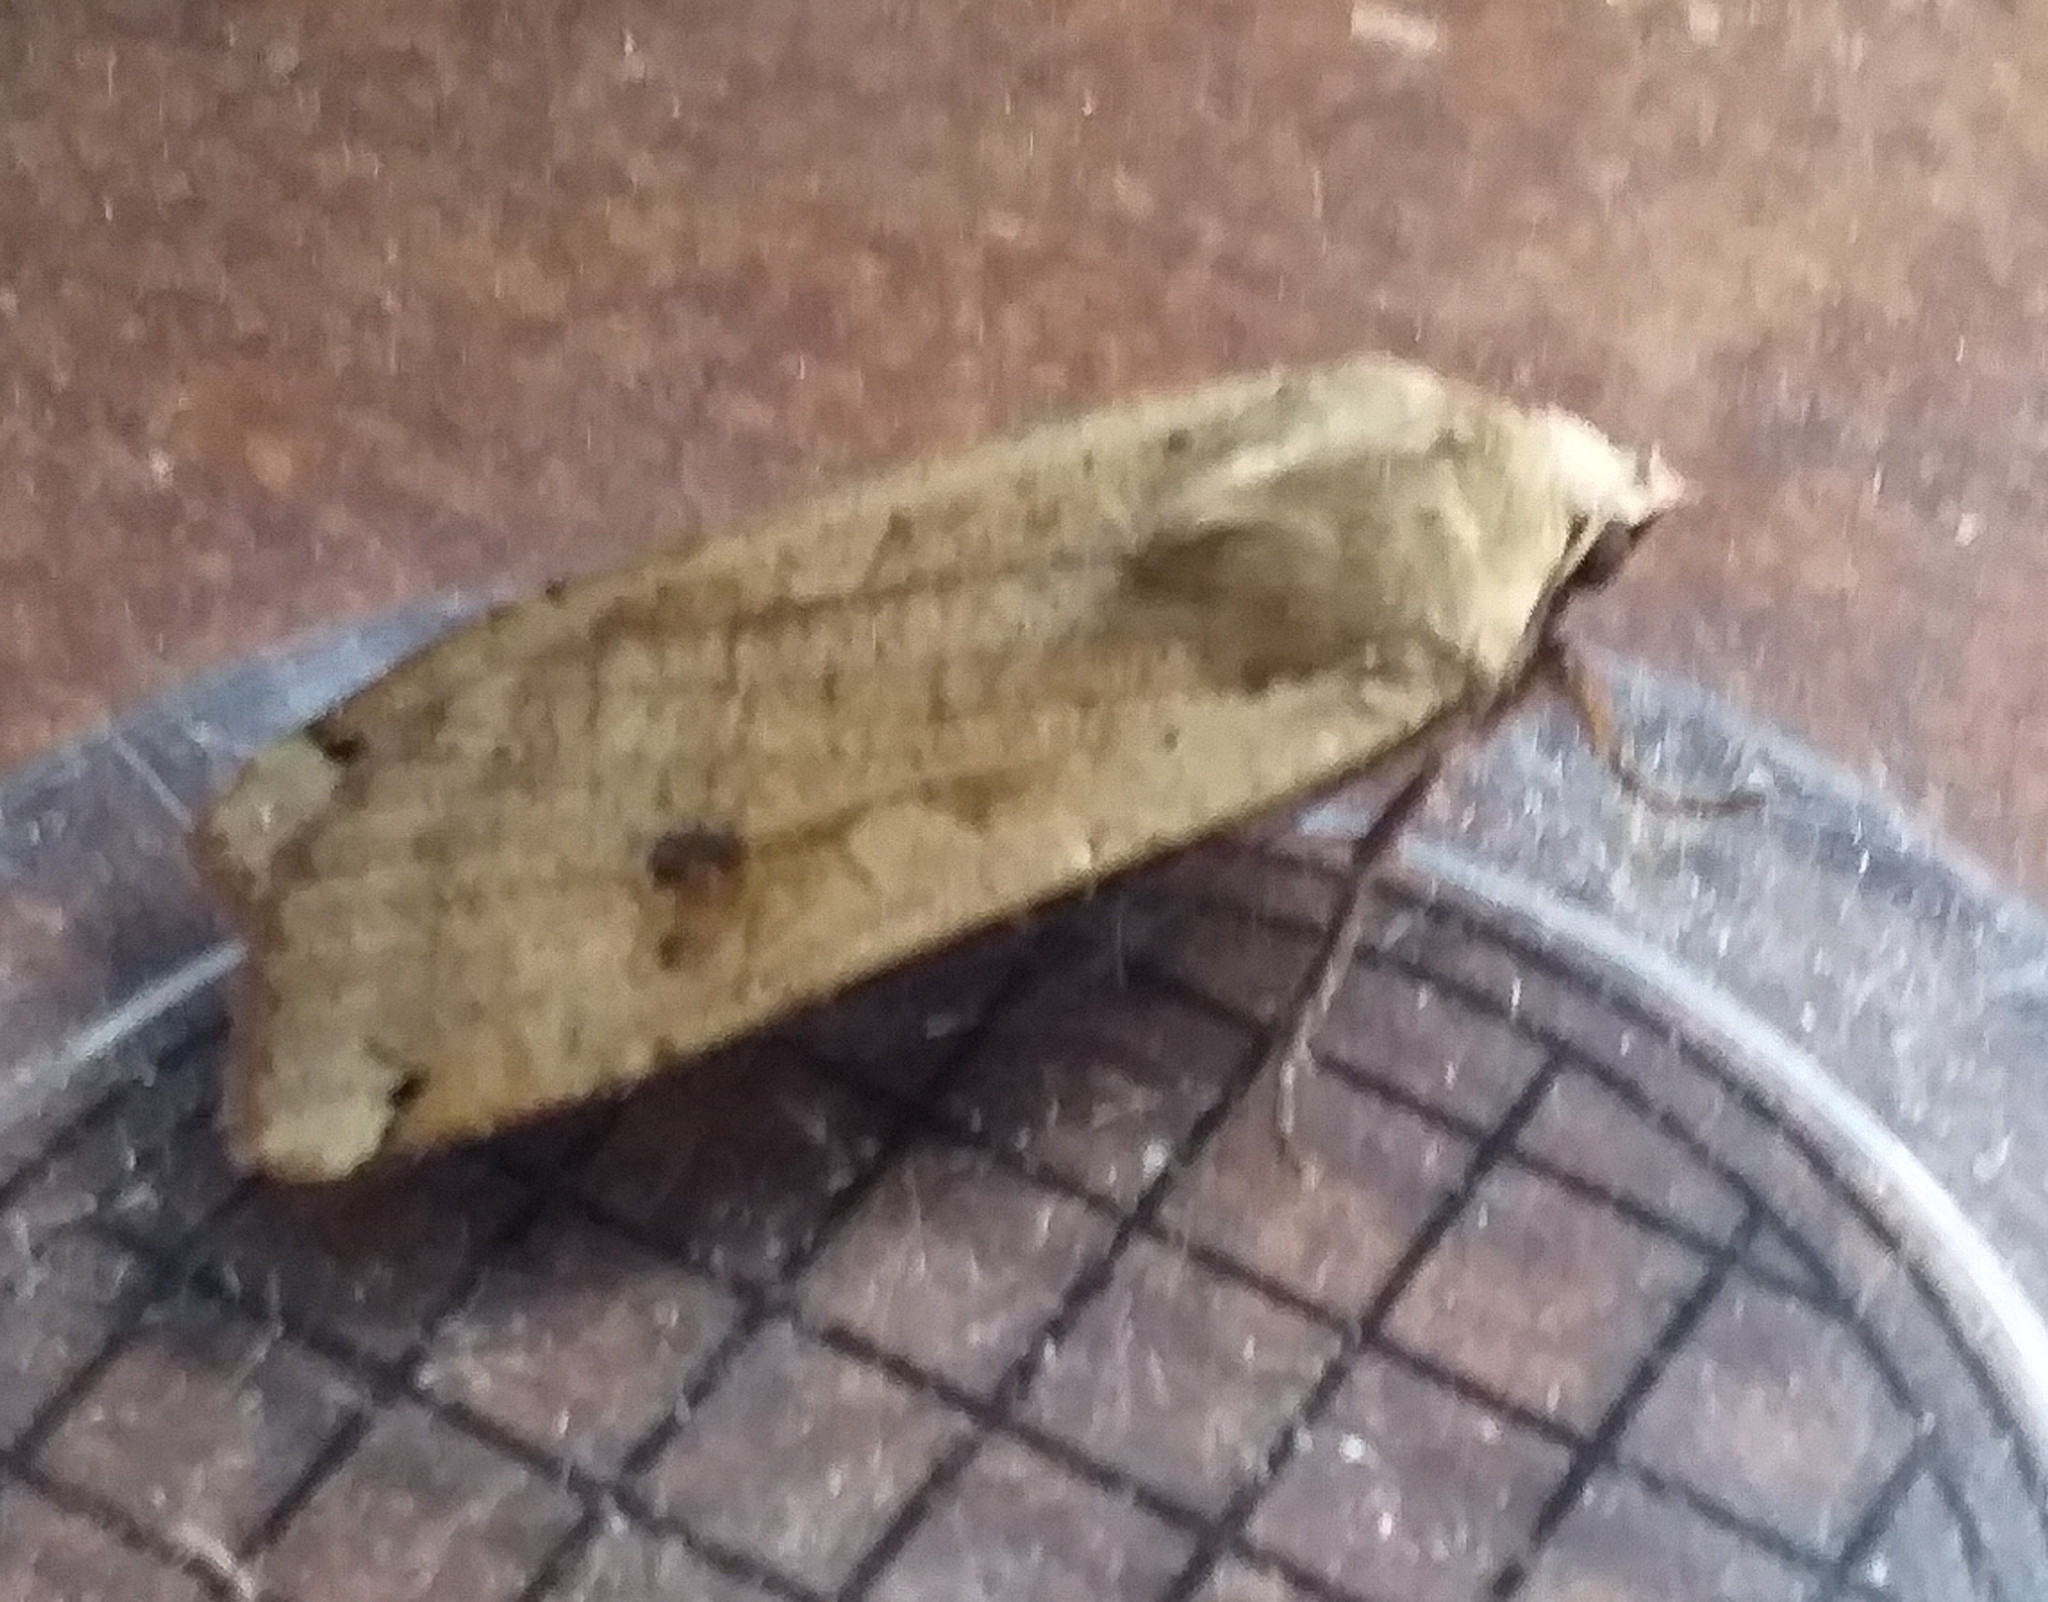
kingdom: Animalia
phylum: Arthropoda
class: Insecta
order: Lepidoptera
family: Noctuidae
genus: Noctua
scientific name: Noctua pronuba
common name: Large yellow underwing
